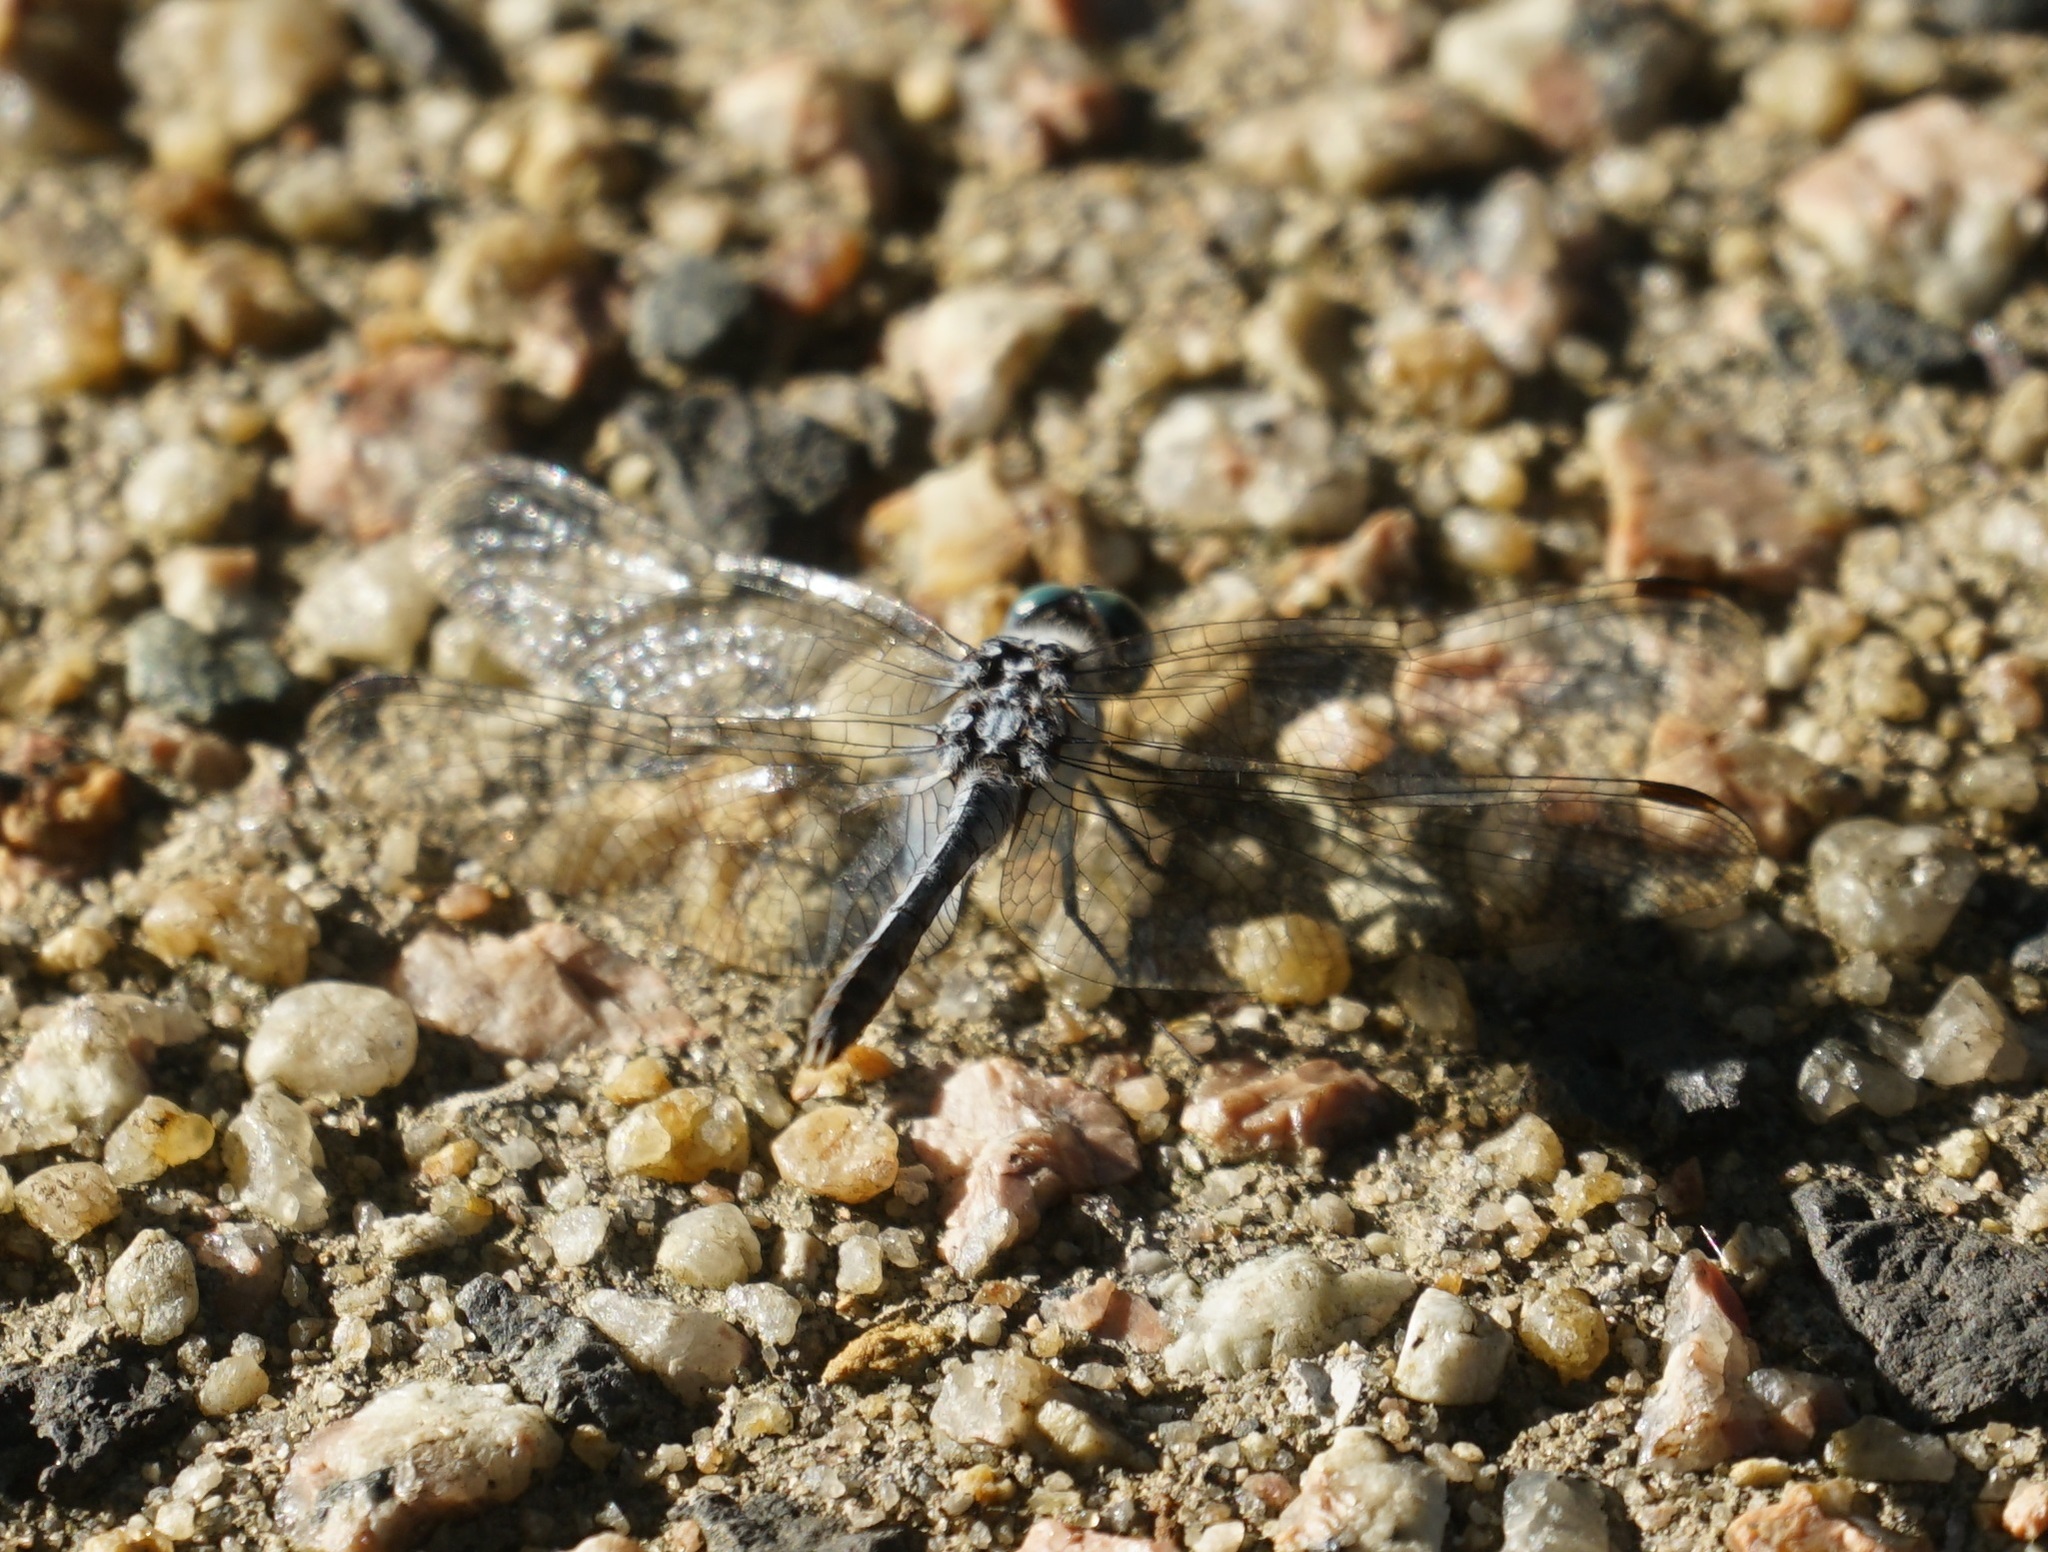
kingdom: Animalia
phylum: Arthropoda
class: Insecta
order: Odonata
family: Libellulidae
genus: Diplacodes
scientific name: Diplacodes trivialis
